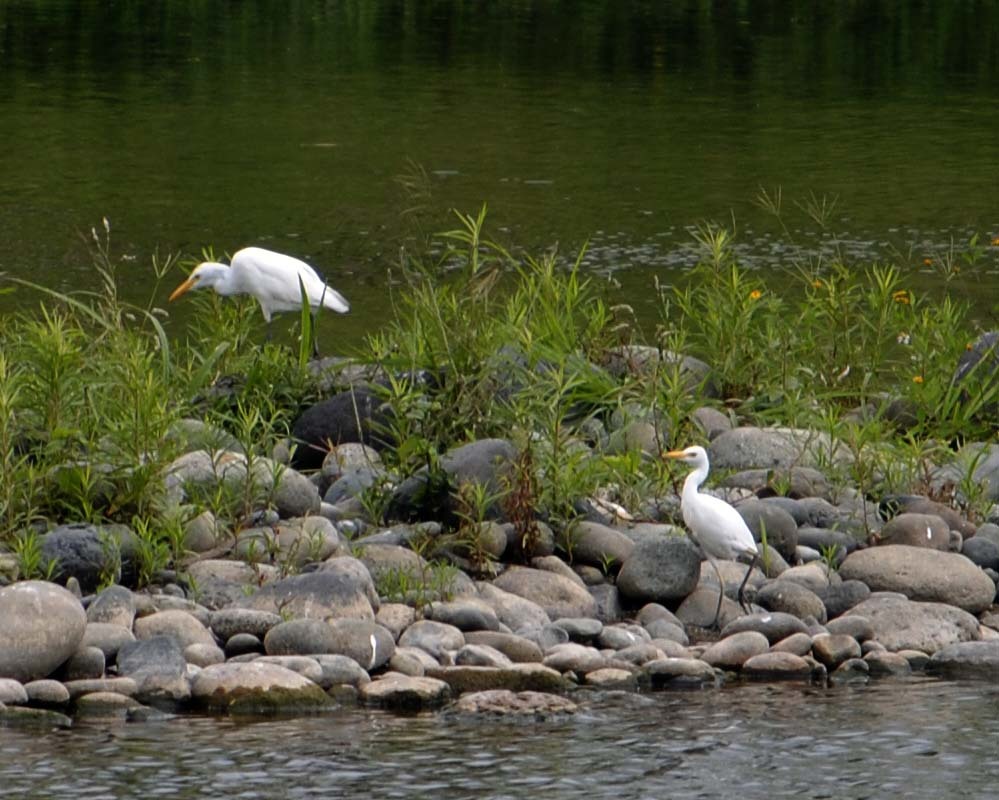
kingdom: Animalia
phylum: Chordata
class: Aves
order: Pelecaniformes
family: Ardeidae
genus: Bubulcus
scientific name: Bubulcus ibis
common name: Cattle egret
